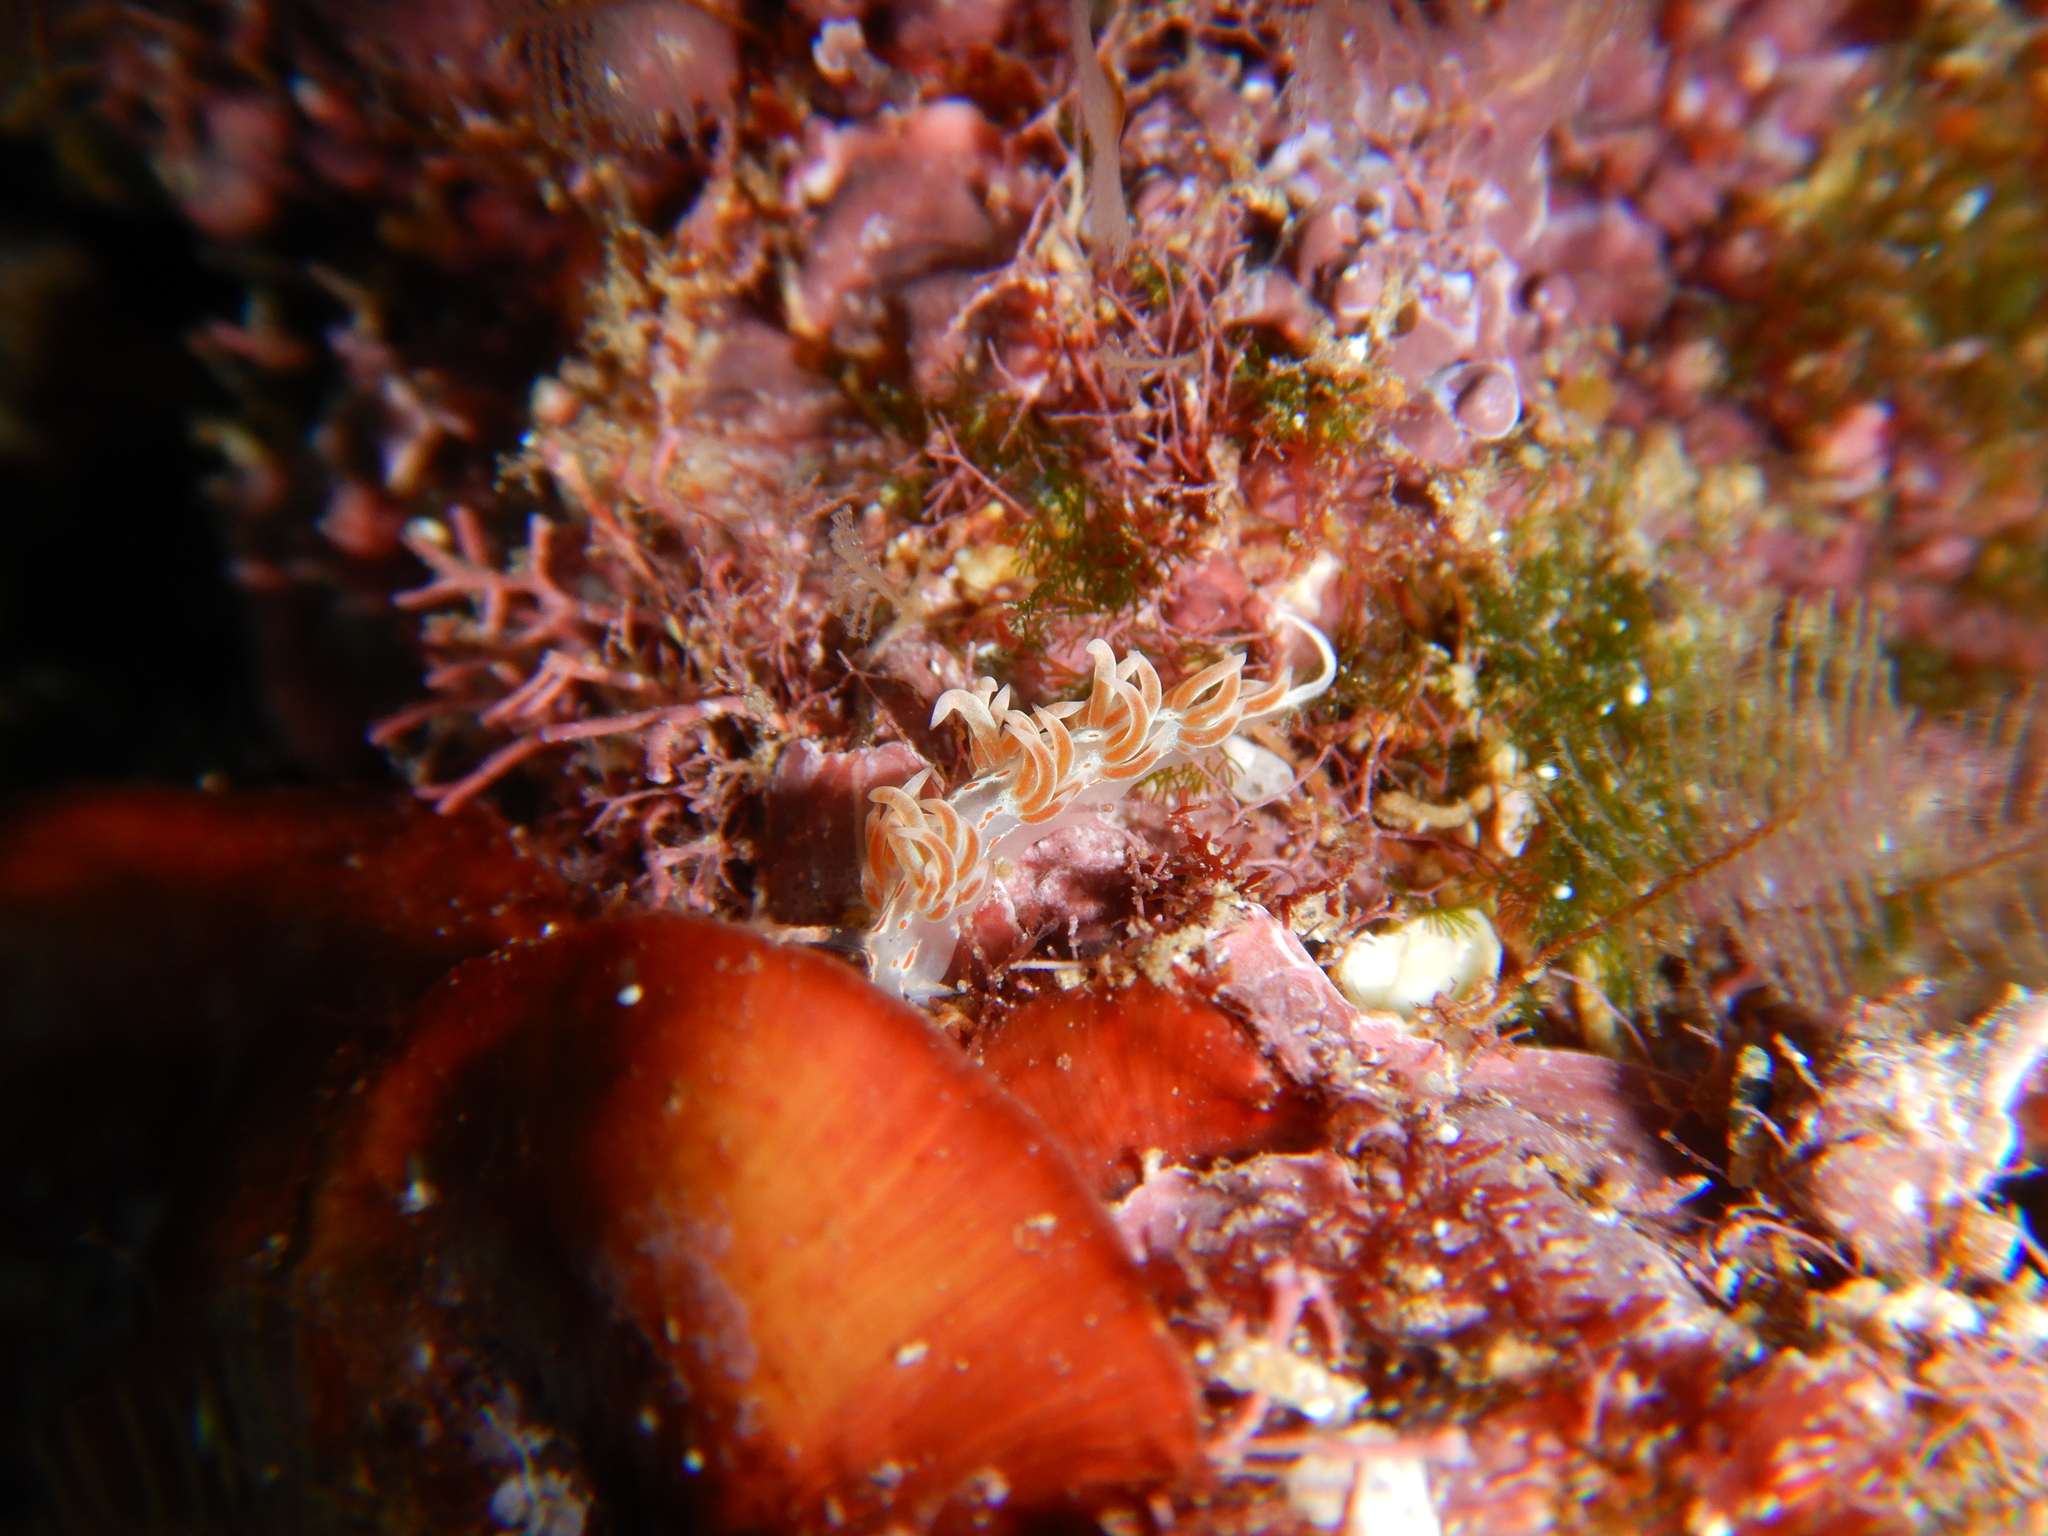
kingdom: Animalia
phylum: Mollusca
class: Gastropoda
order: Nudibranchia
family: Facelinidae
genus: Facelina
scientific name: Facelina rubrovittata
